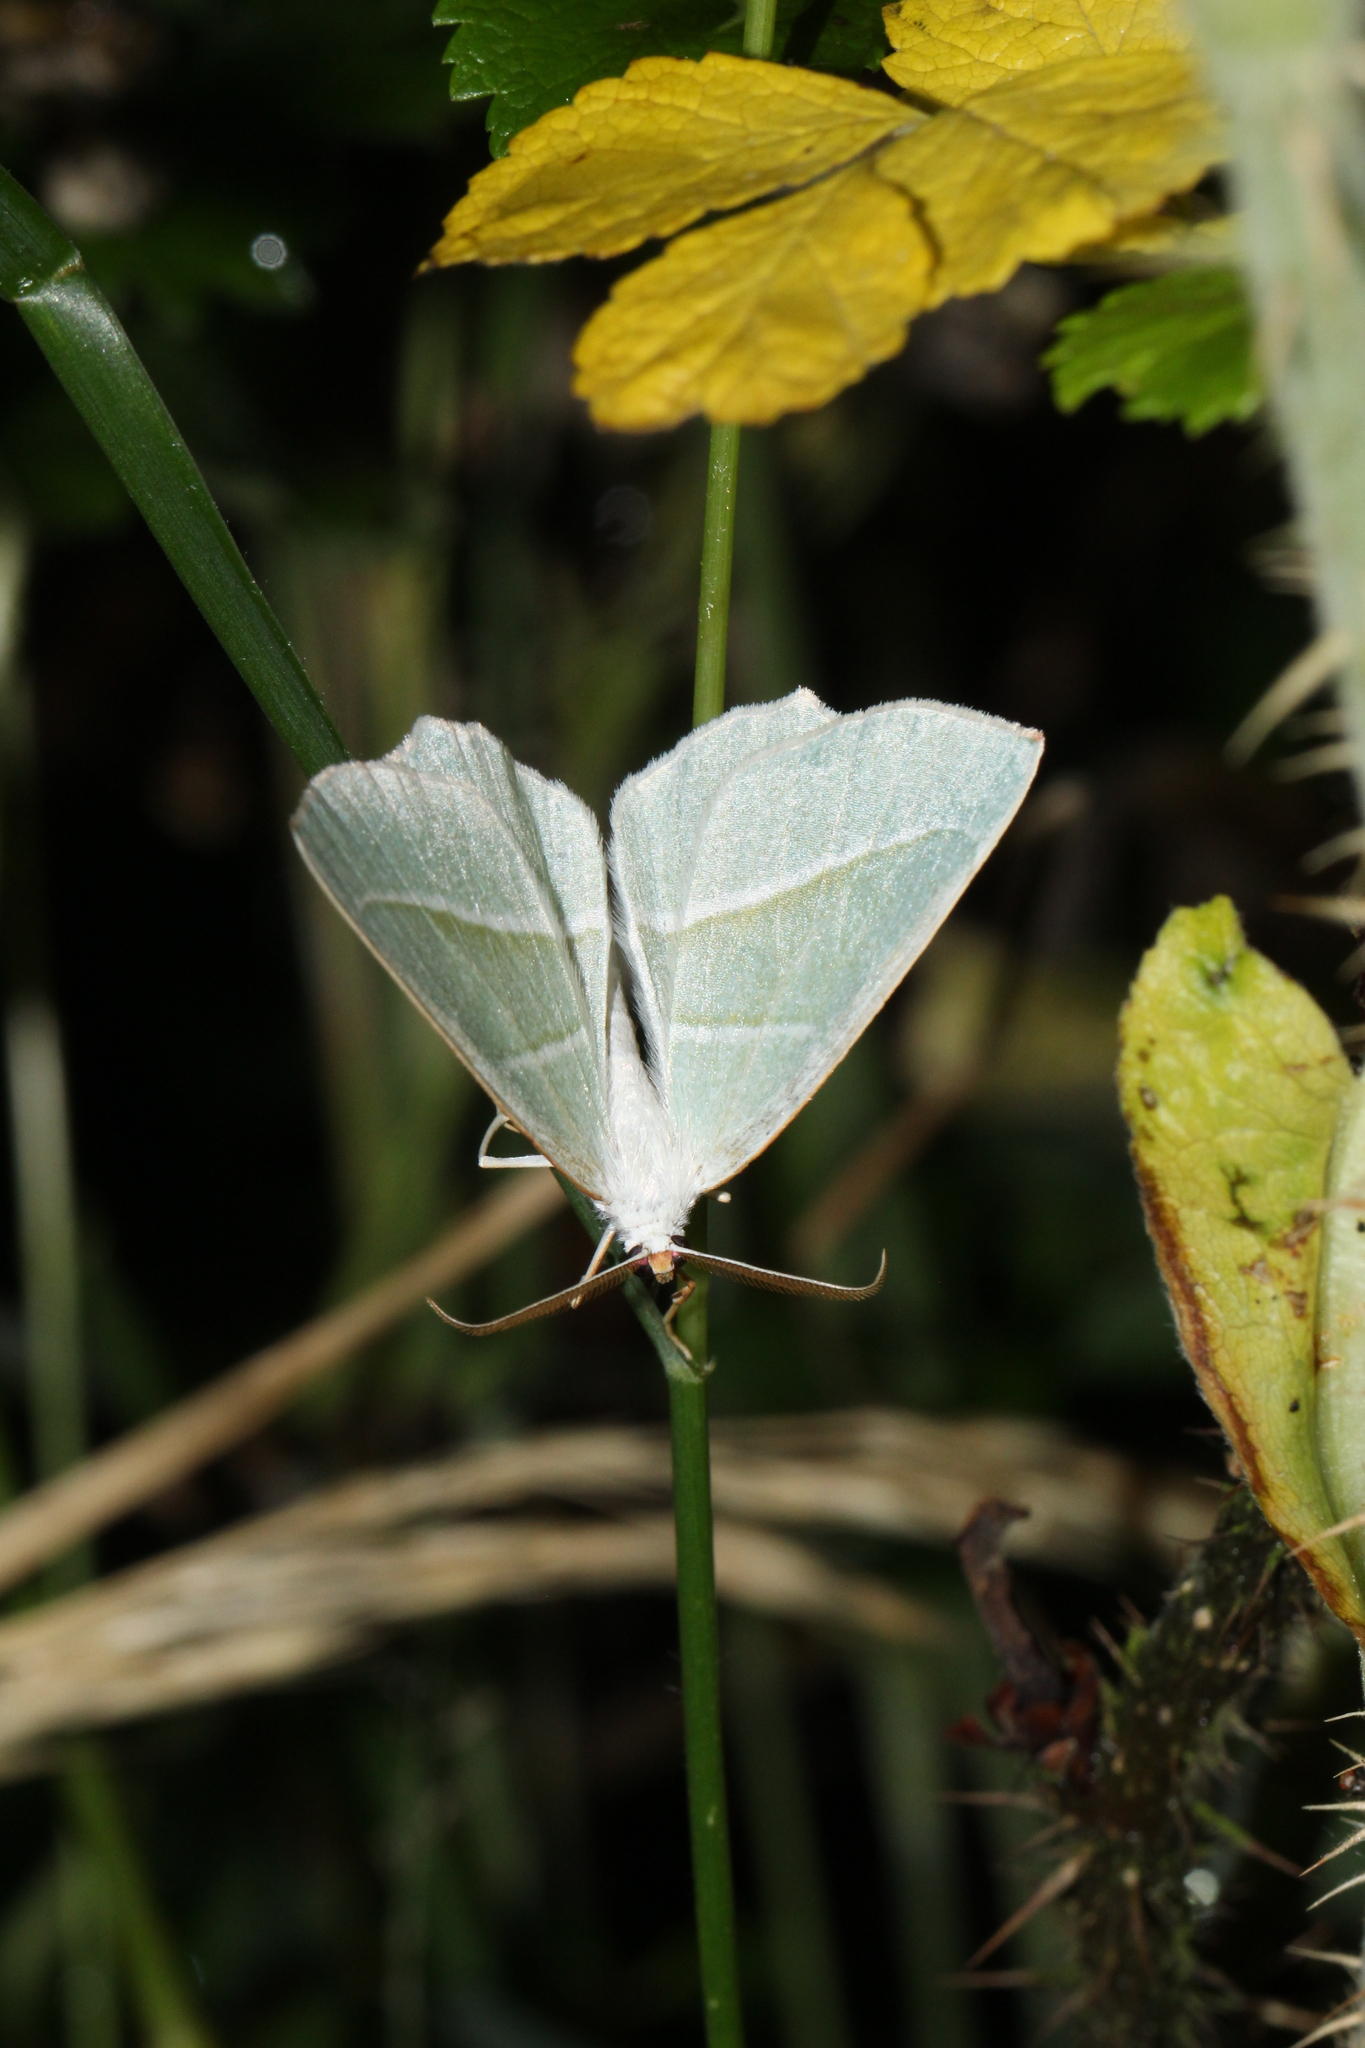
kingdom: Animalia
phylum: Arthropoda
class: Insecta
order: Lepidoptera
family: Geometridae
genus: Campaea
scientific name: Campaea margaritaria
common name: Light emerald
